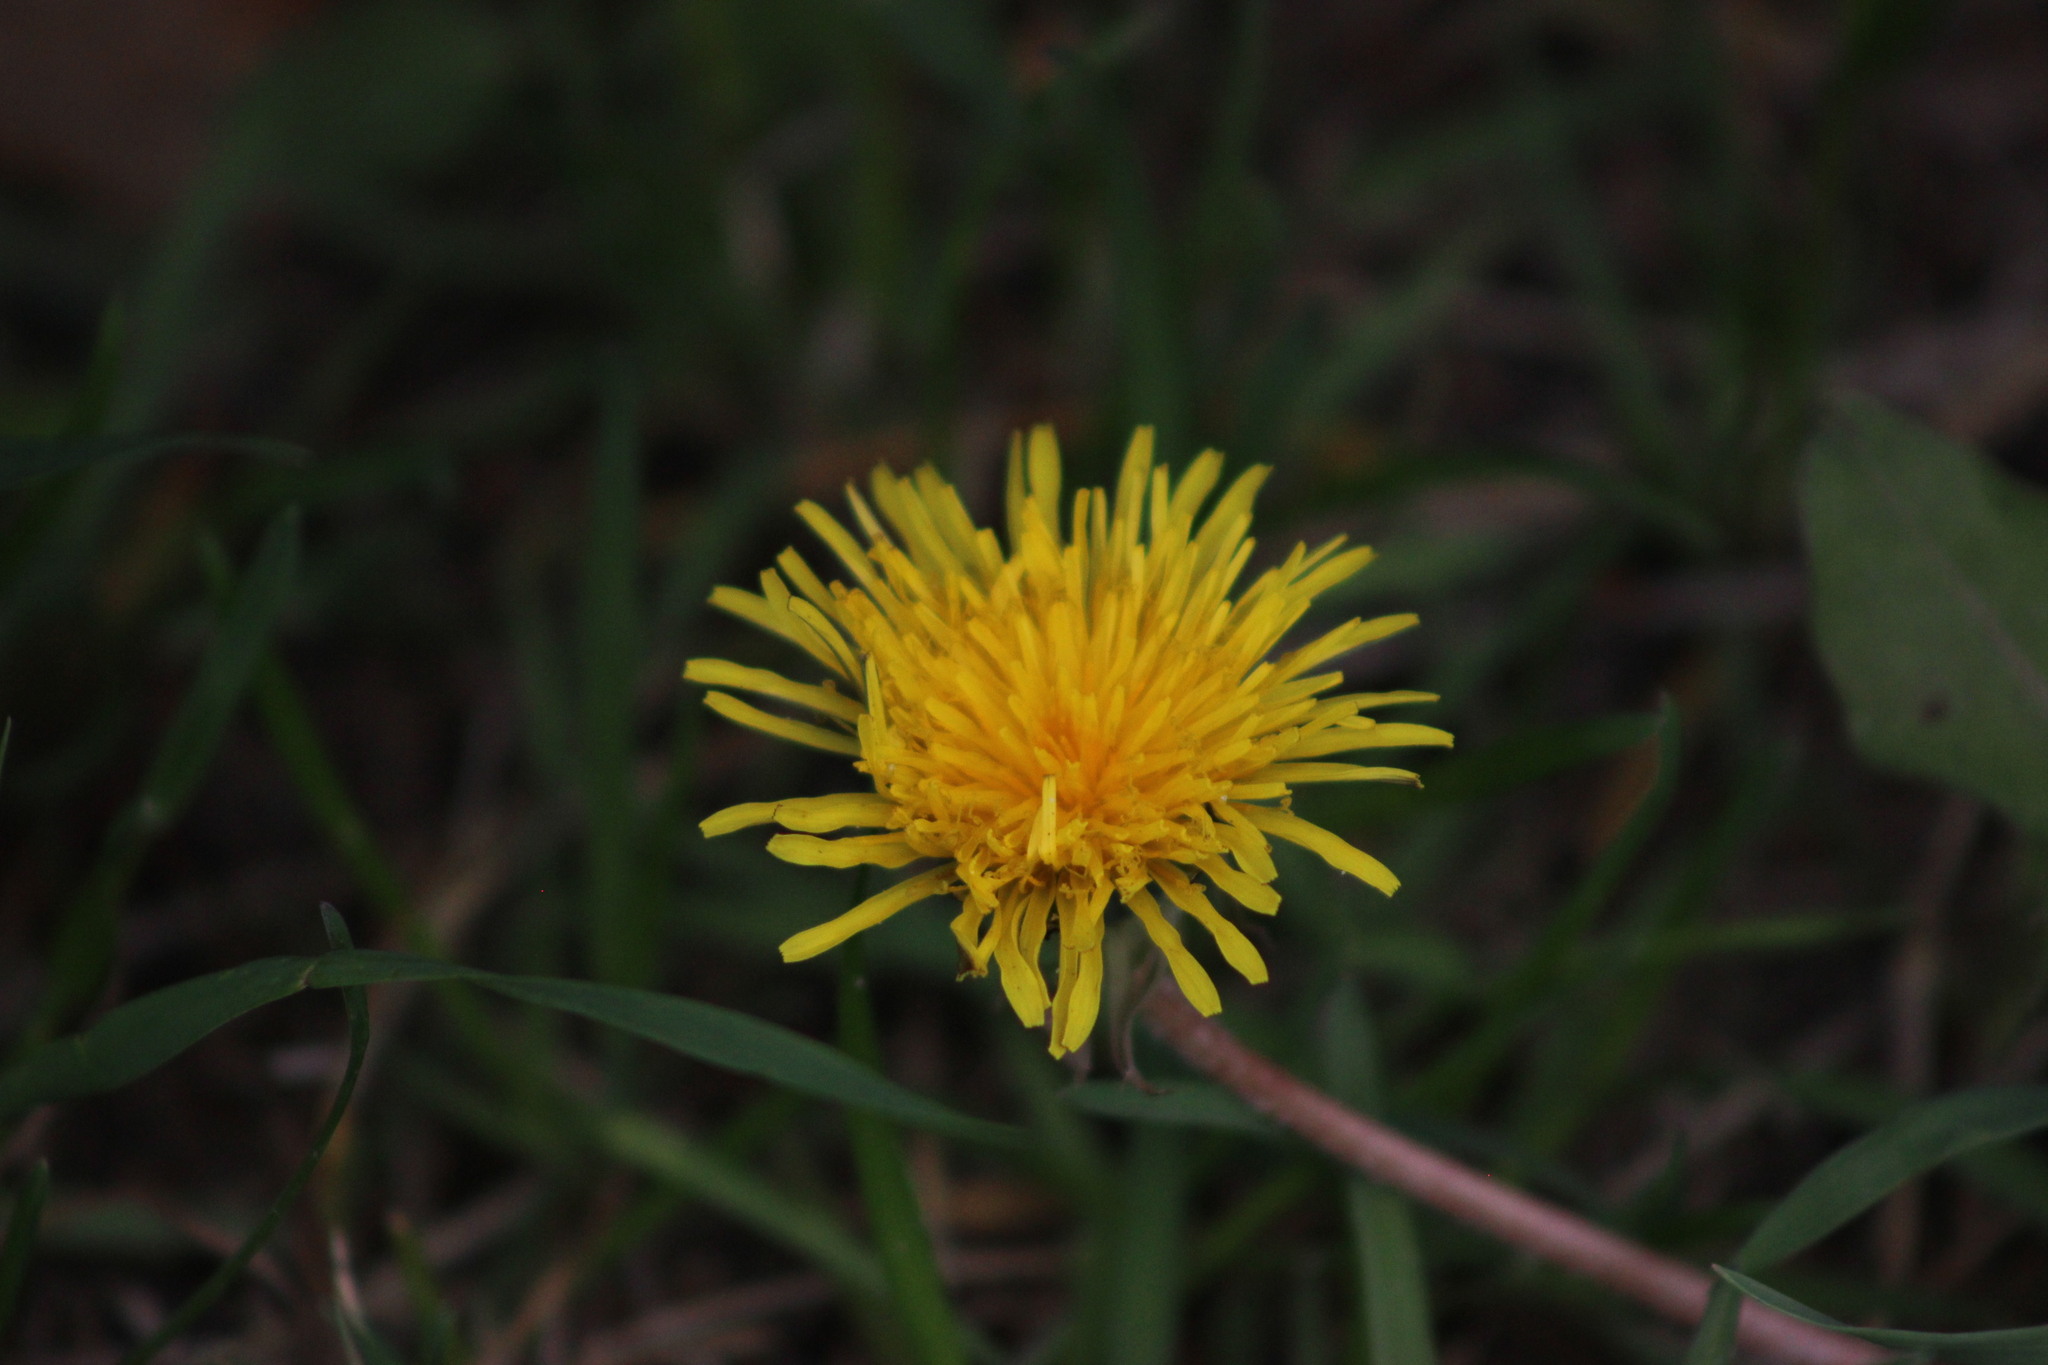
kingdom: Plantae
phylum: Tracheophyta
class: Magnoliopsida
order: Asterales
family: Asteraceae
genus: Taraxacum
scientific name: Taraxacum officinale
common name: Common dandelion
